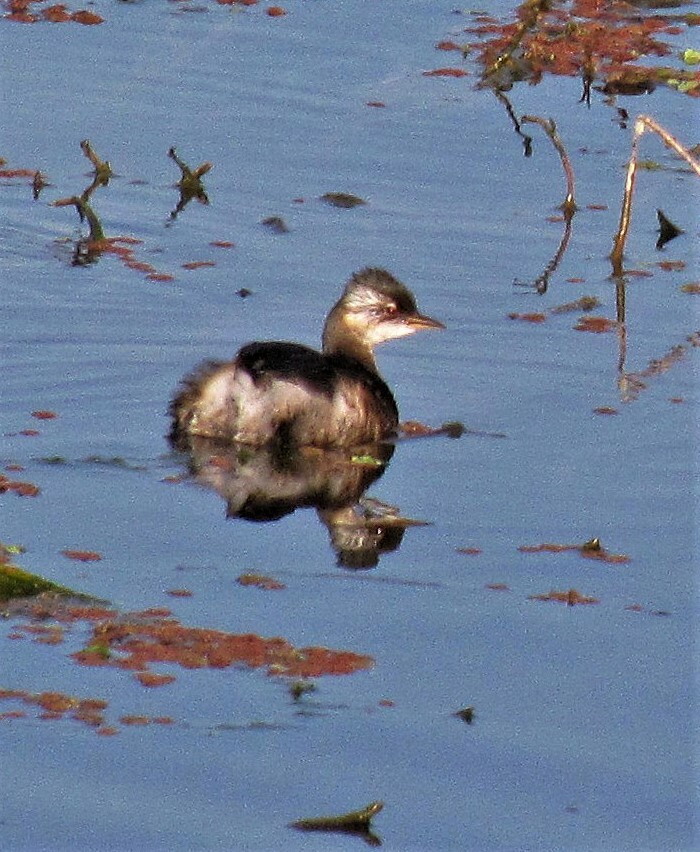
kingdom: Animalia
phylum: Chordata
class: Aves
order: Podicipediformes
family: Podicipedidae
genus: Rollandia
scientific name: Rollandia rolland
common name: White-tufted grebe
